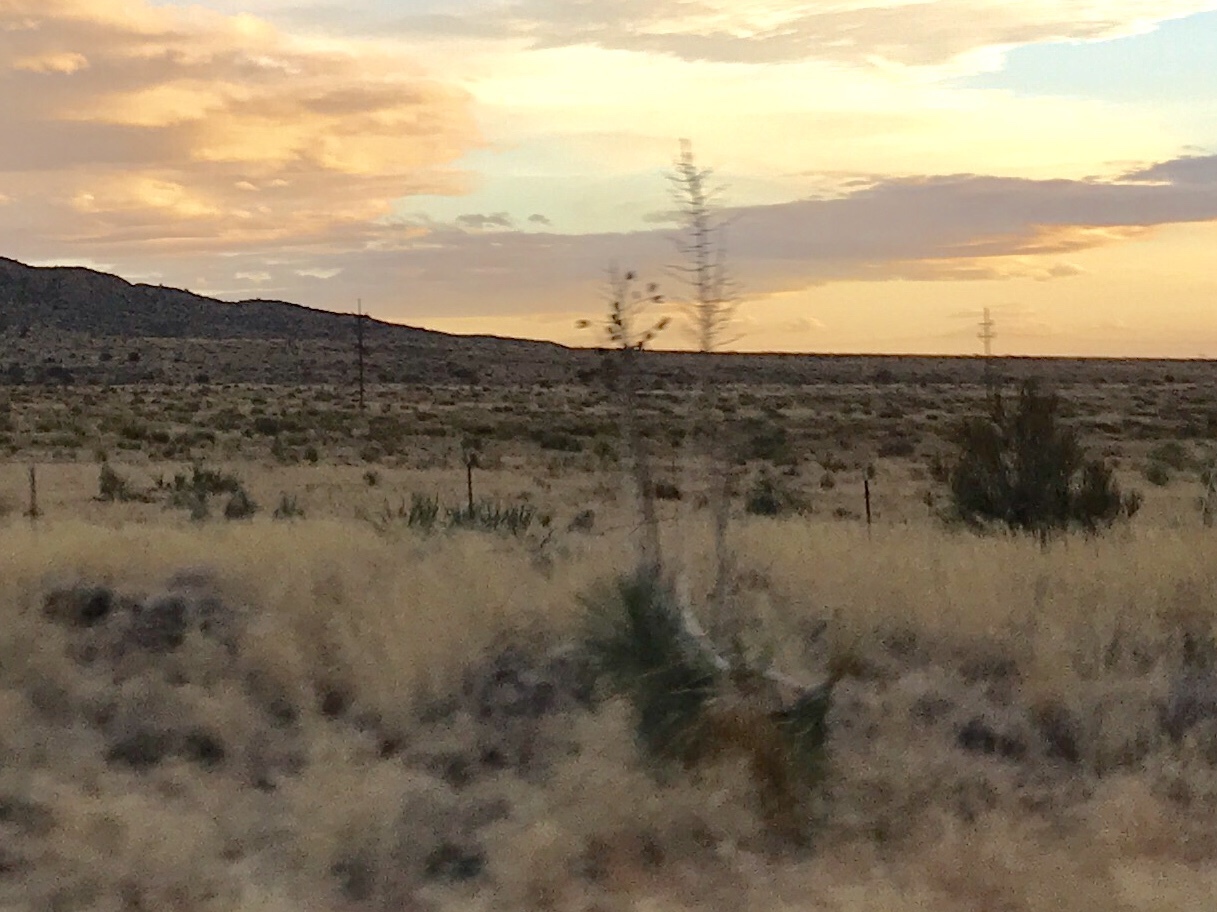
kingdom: Plantae
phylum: Tracheophyta
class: Liliopsida
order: Asparagales
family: Asparagaceae
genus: Yucca
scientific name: Yucca elata
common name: Palmella
